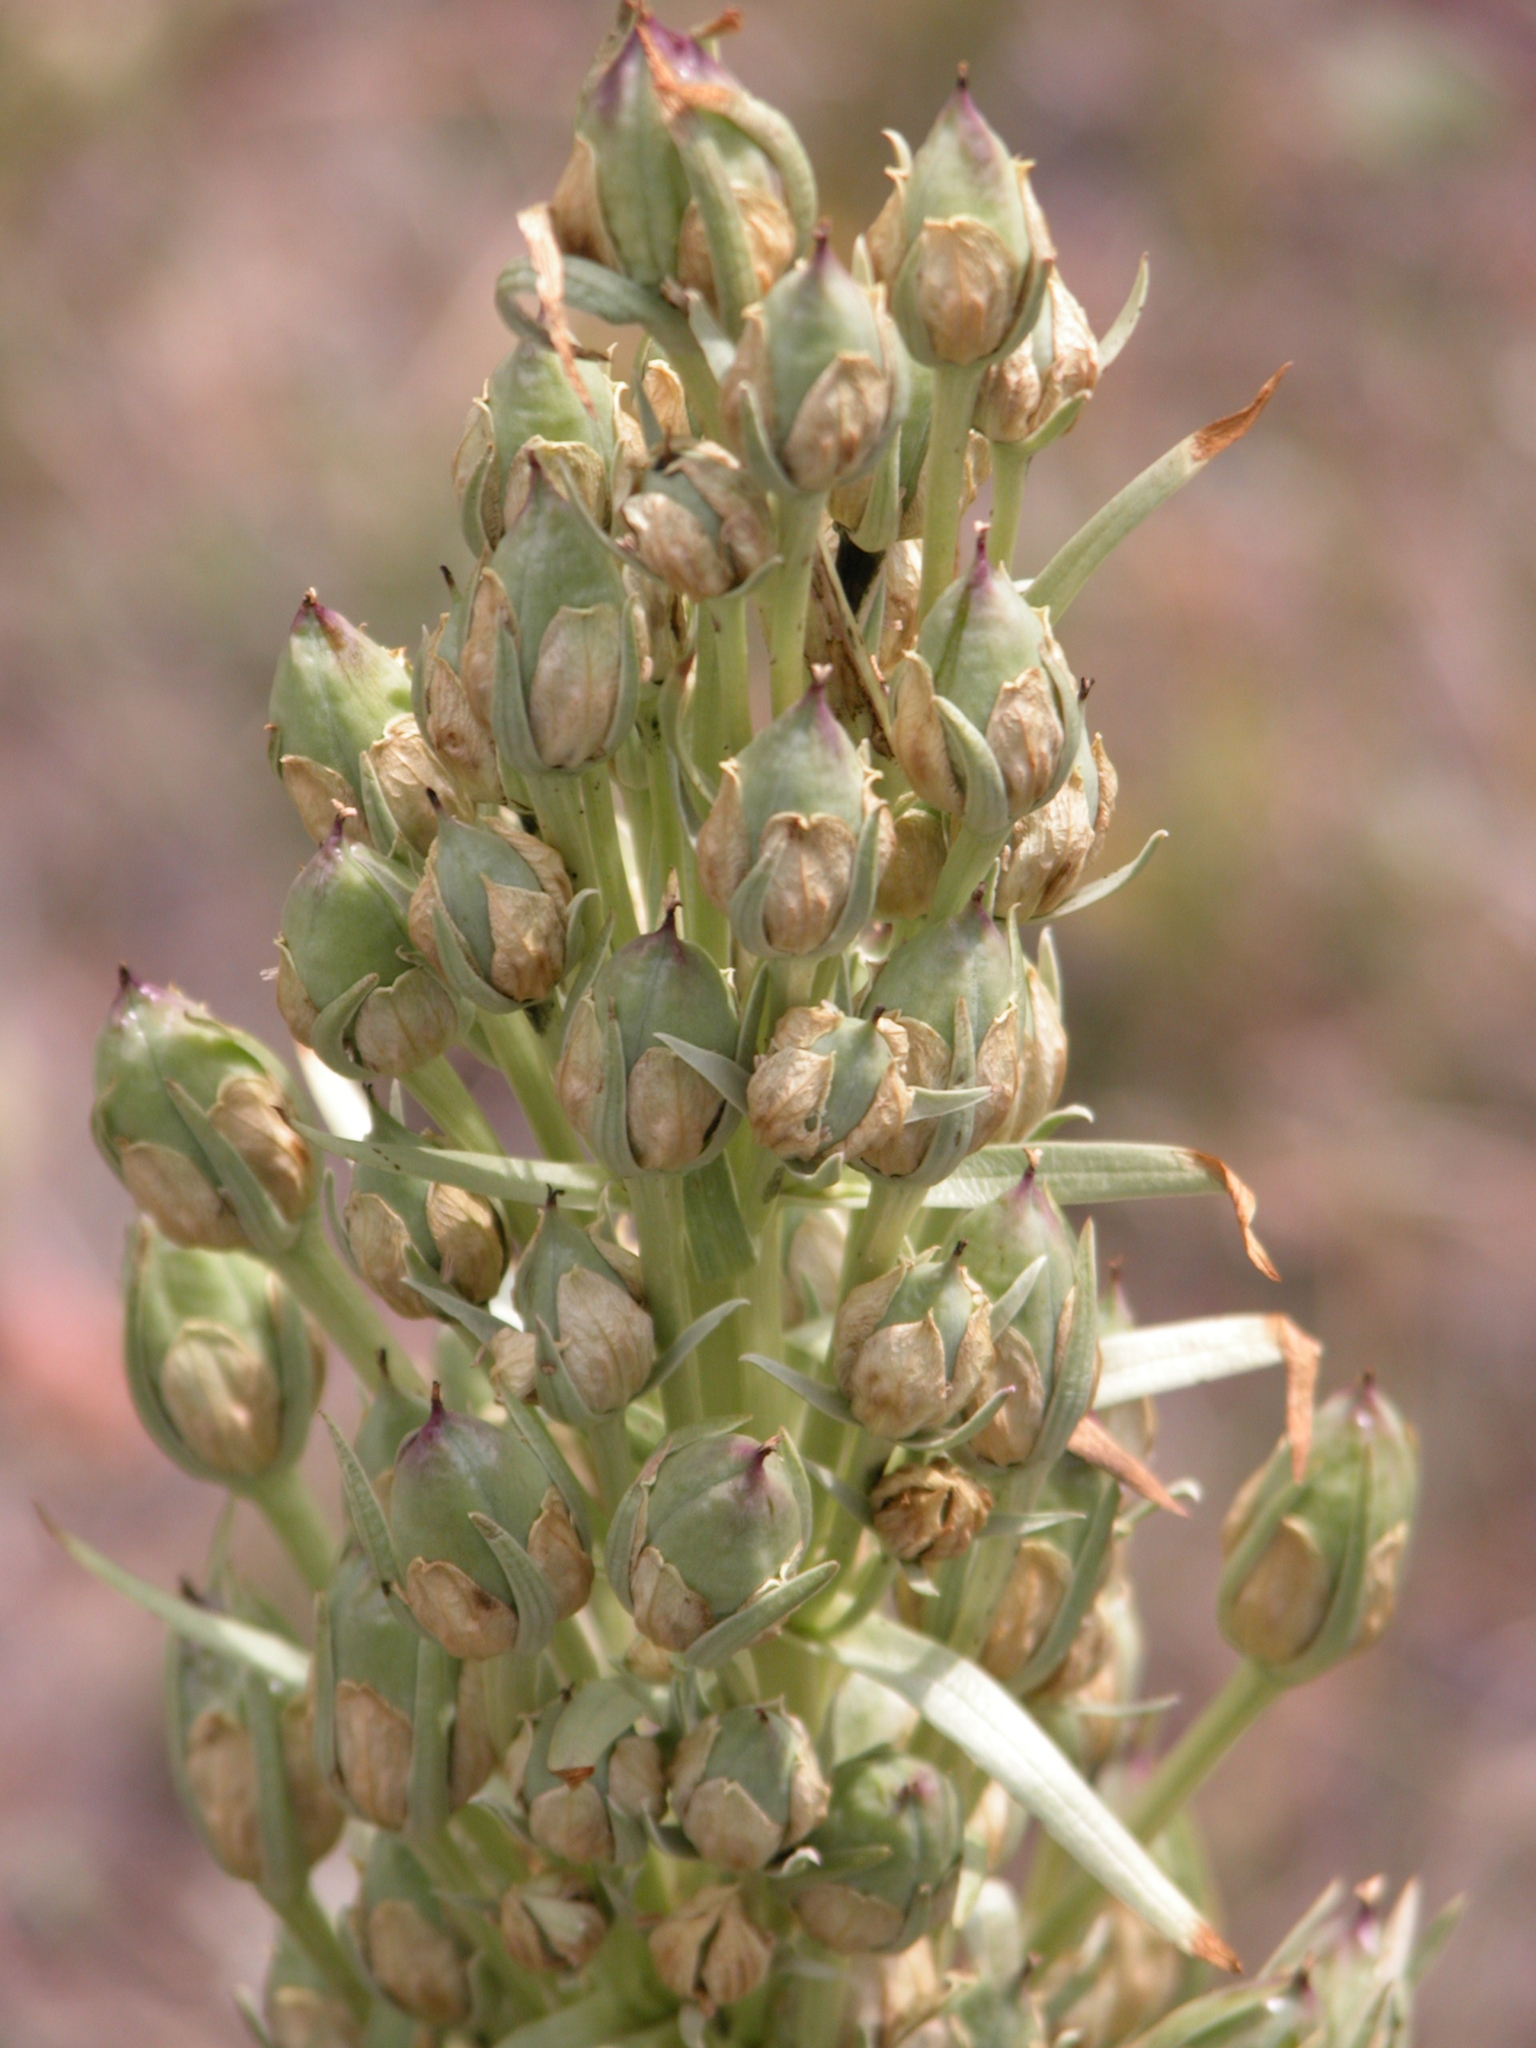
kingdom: Plantae
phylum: Tracheophyta
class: Magnoliopsida
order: Gentianales
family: Gentianaceae
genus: Frasera
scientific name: Frasera speciosa
